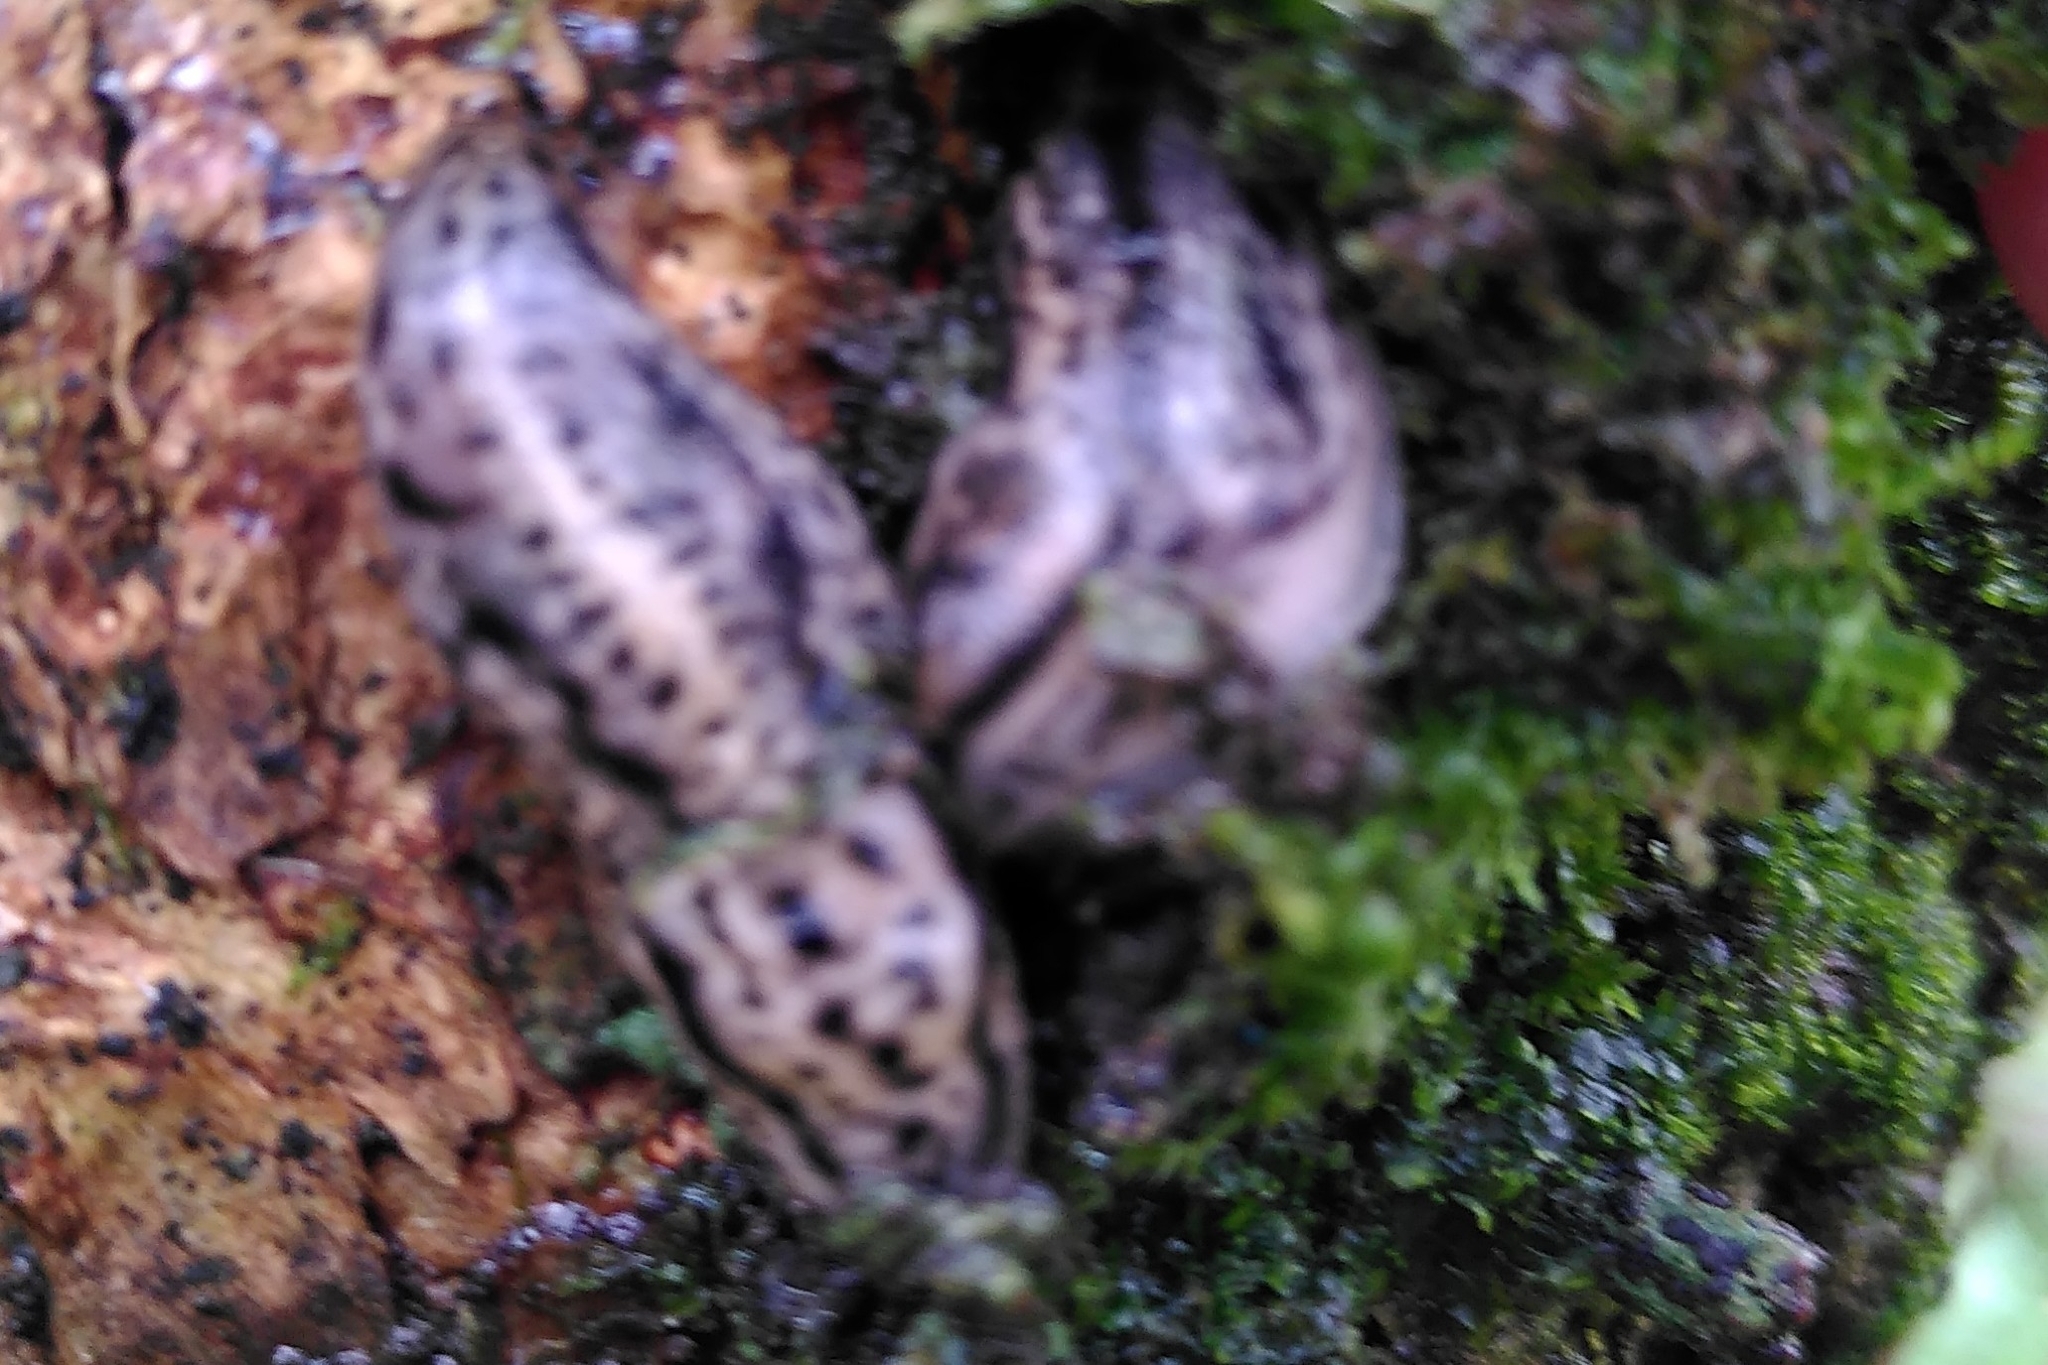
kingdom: Animalia
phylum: Mollusca
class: Gastropoda
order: Stylommatophora
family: Limacidae
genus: Lehmannia
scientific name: Lehmannia marginata
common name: Tree slug
